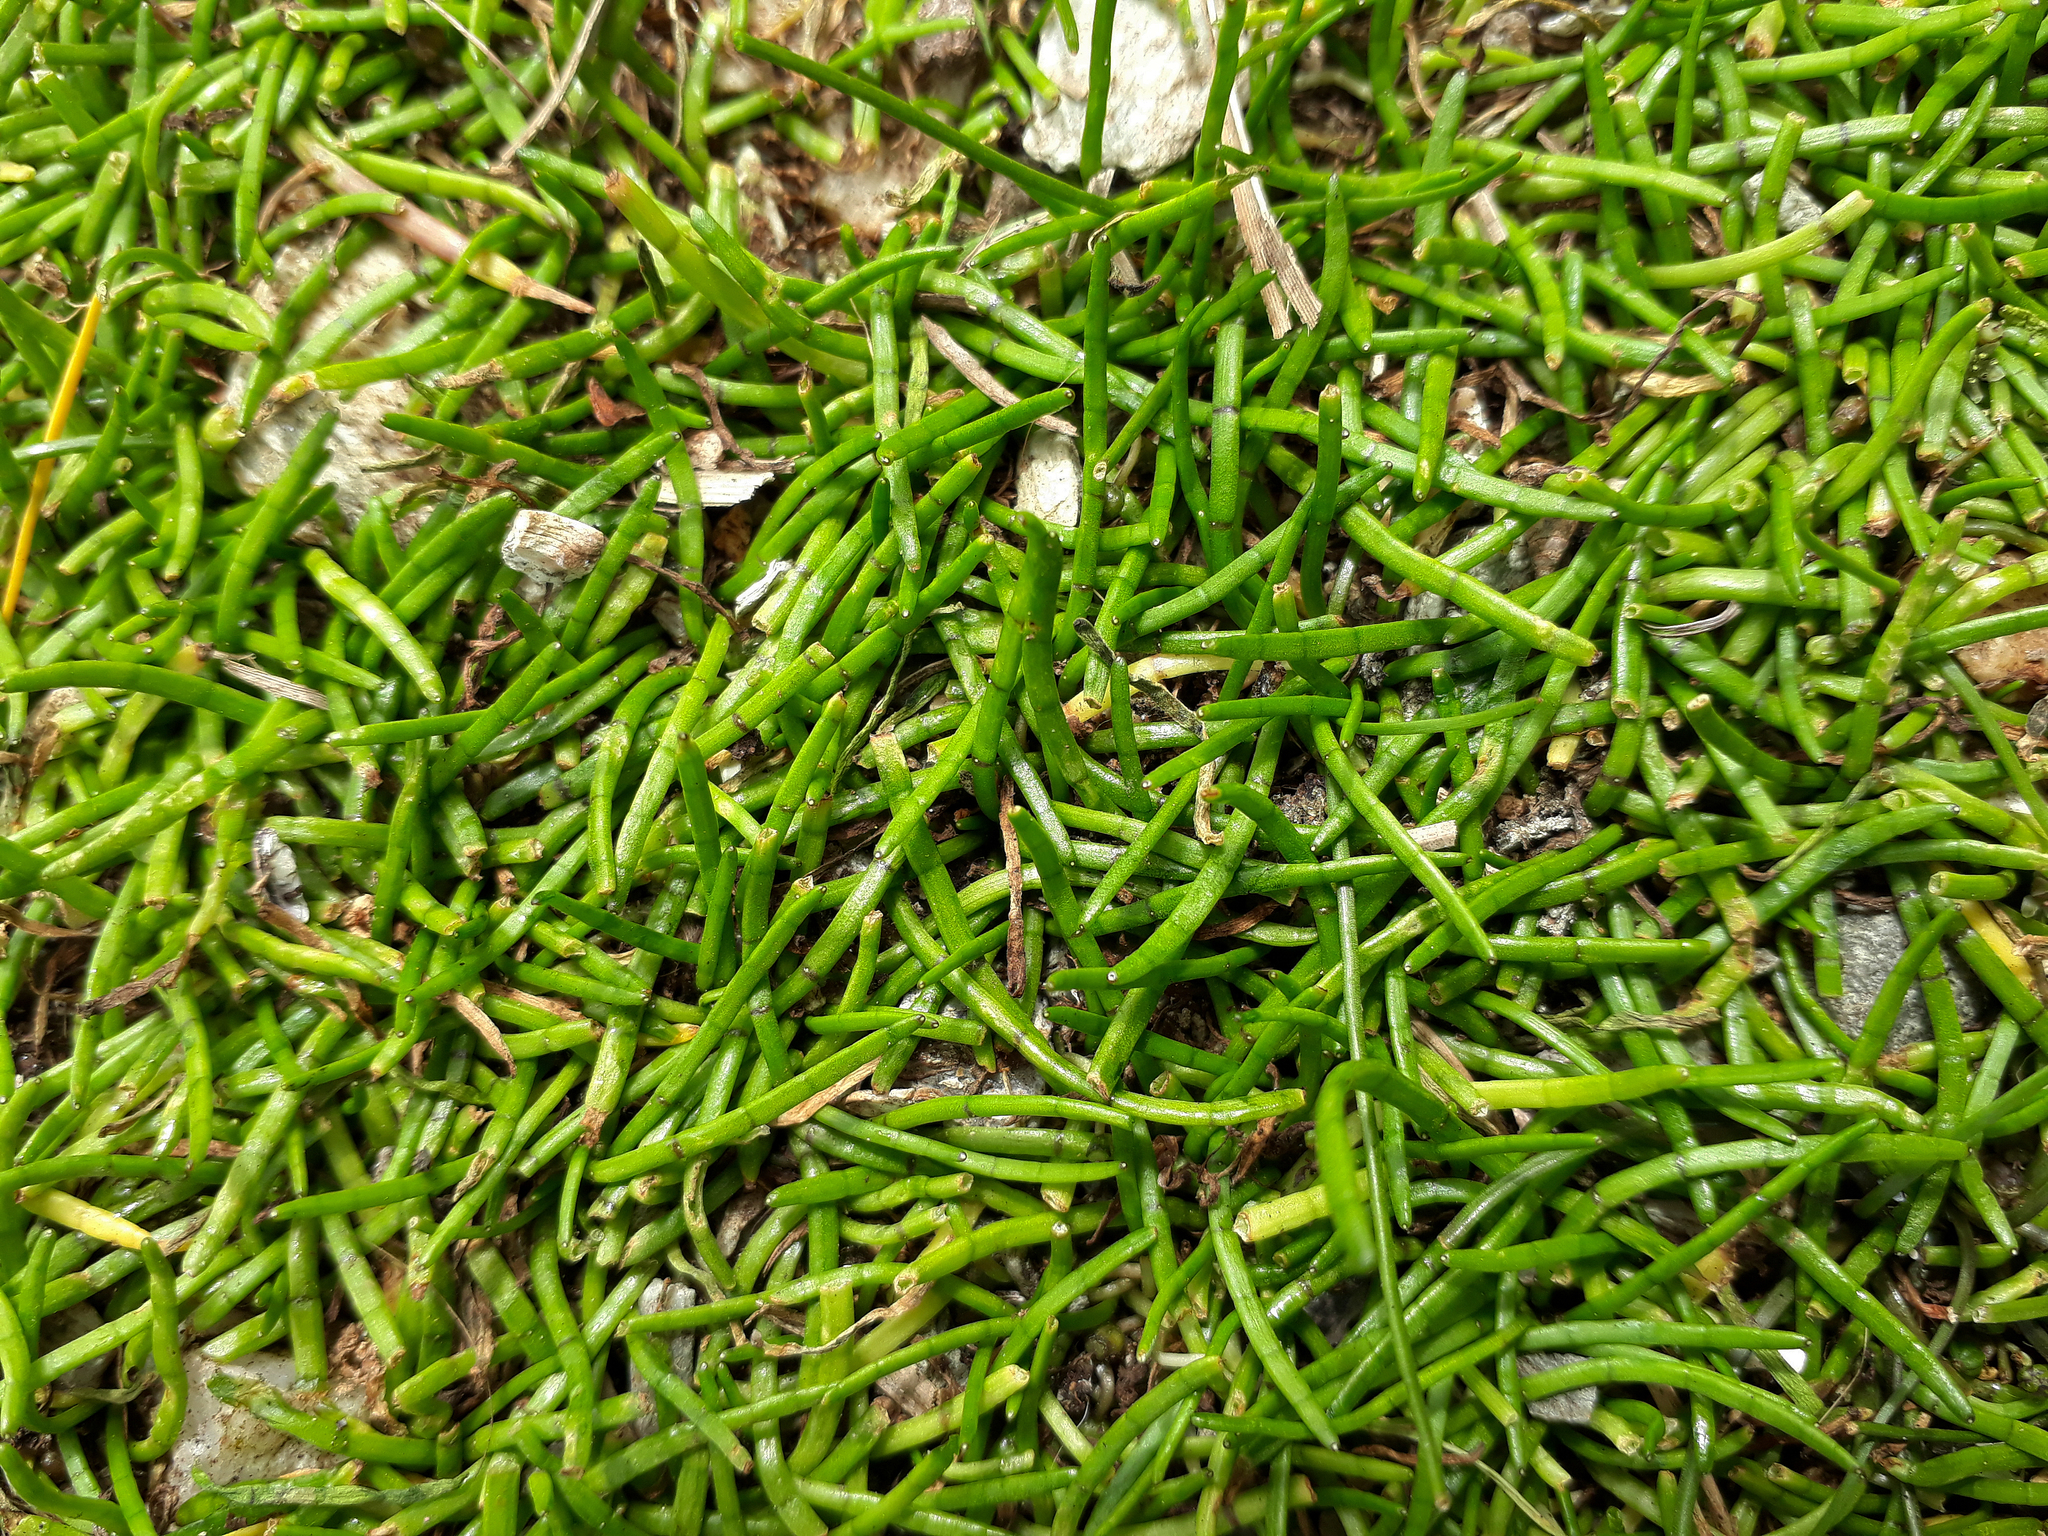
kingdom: Plantae
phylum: Tracheophyta
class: Magnoliopsida
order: Apiales
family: Apiaceae
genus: Lilaeopsis
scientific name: Lilaeopsis novae-zelandiae
